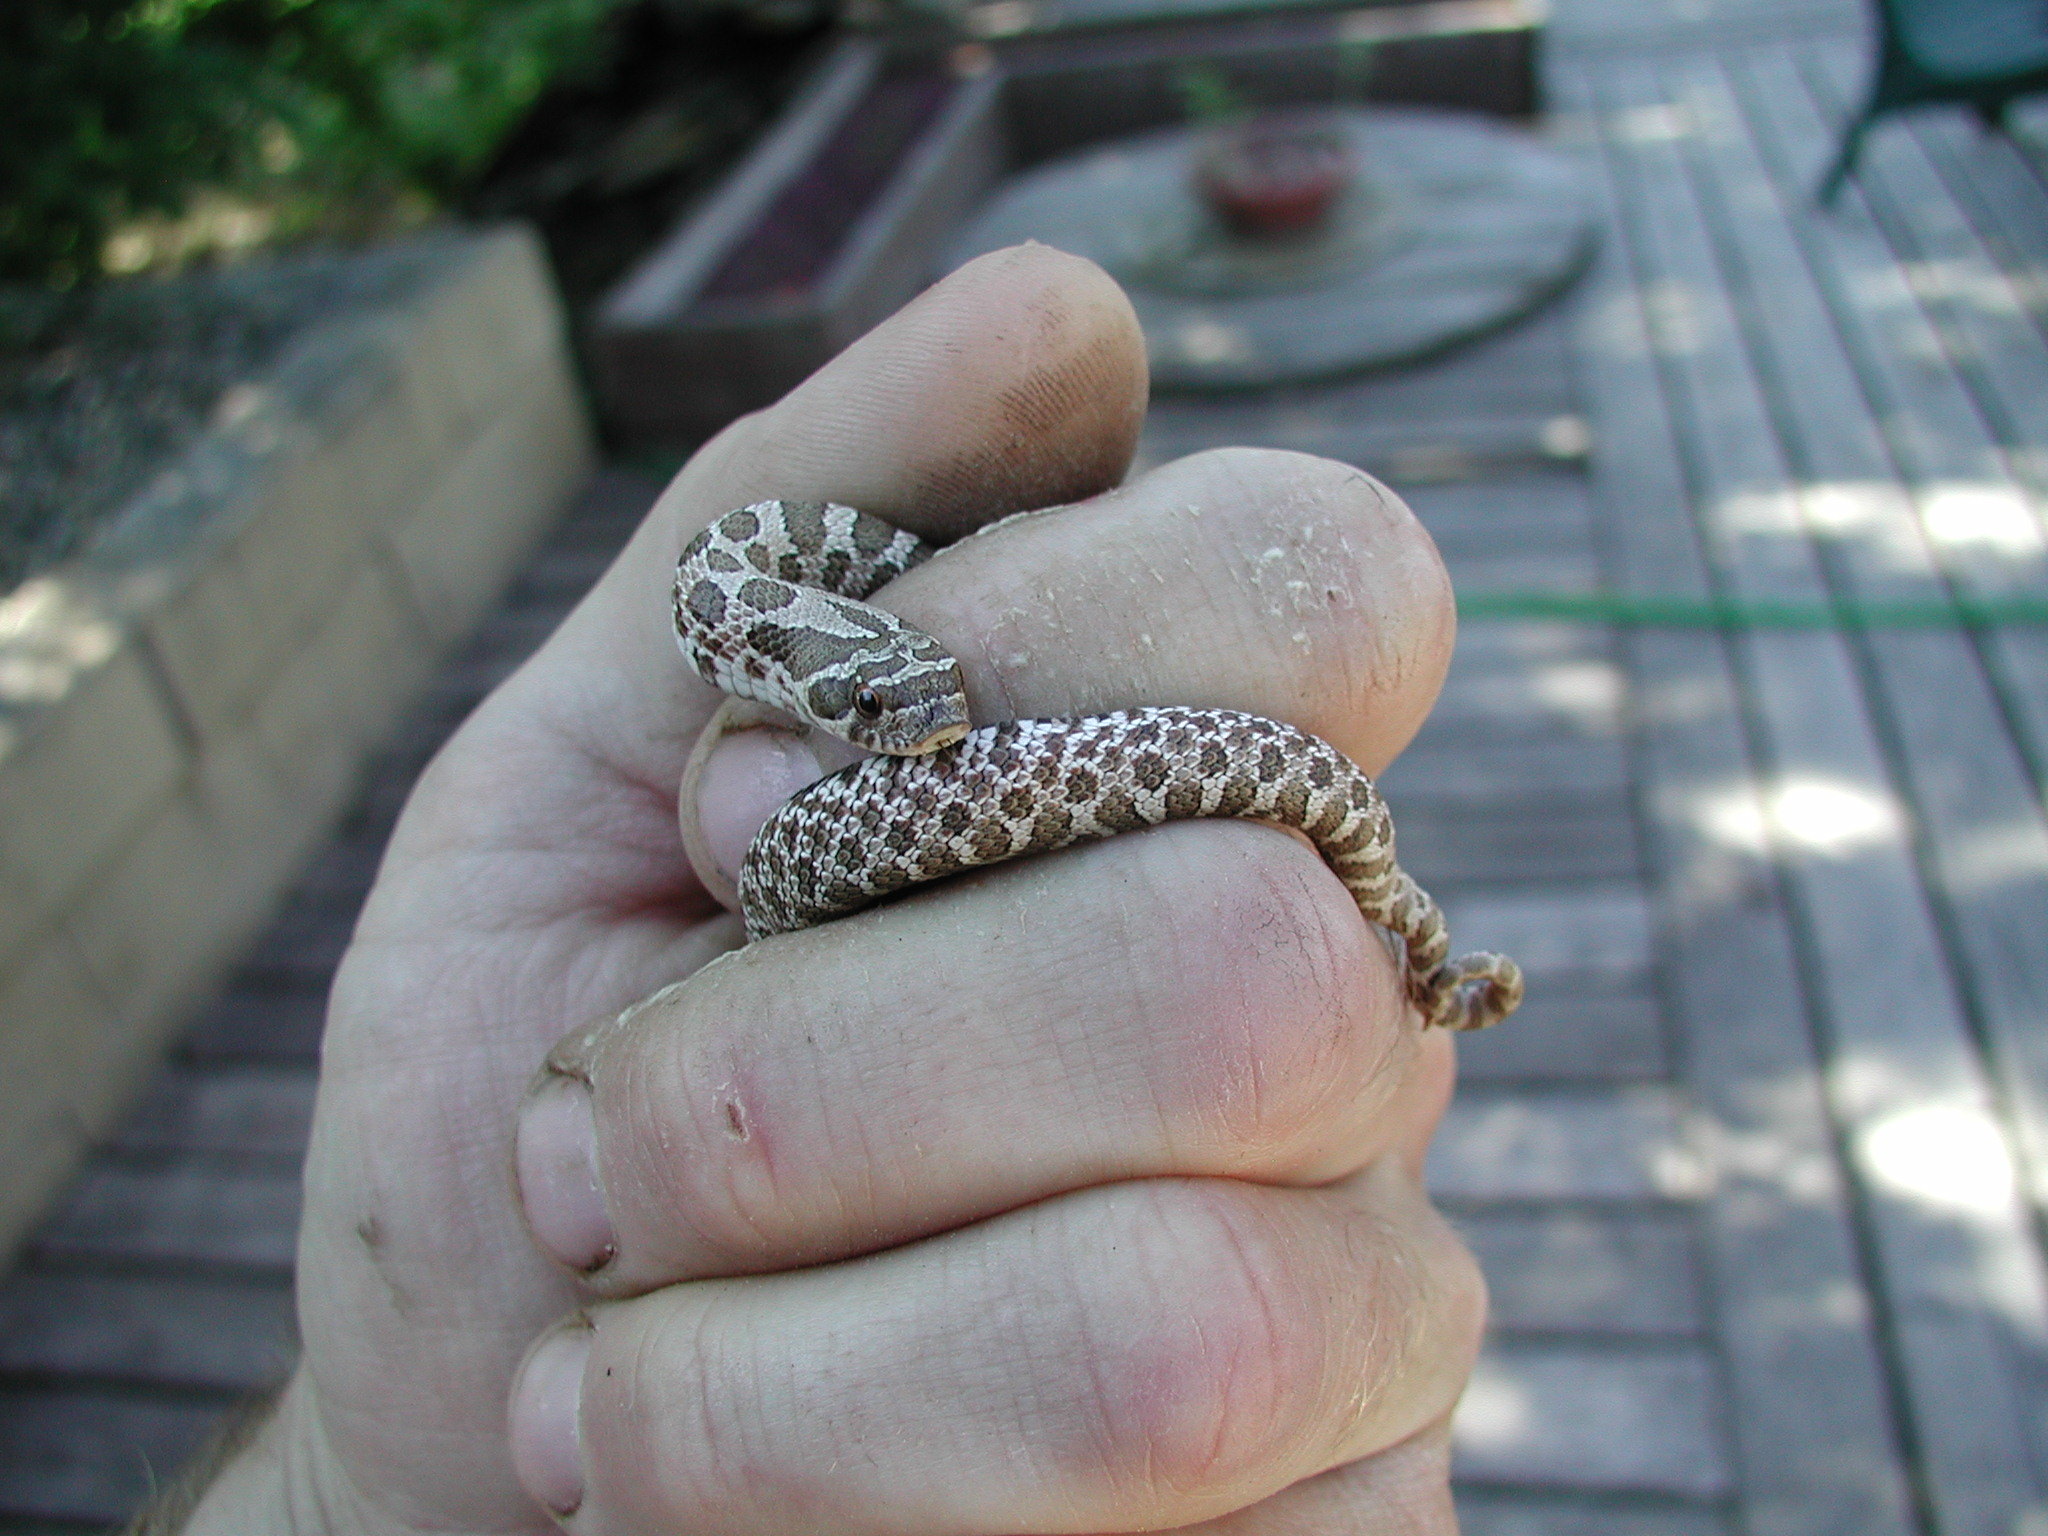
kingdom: Animalia
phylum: Chordata
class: Squamata
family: Colubridae
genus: Heterodon
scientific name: Heterodon nasicus
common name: Western hognose snake
